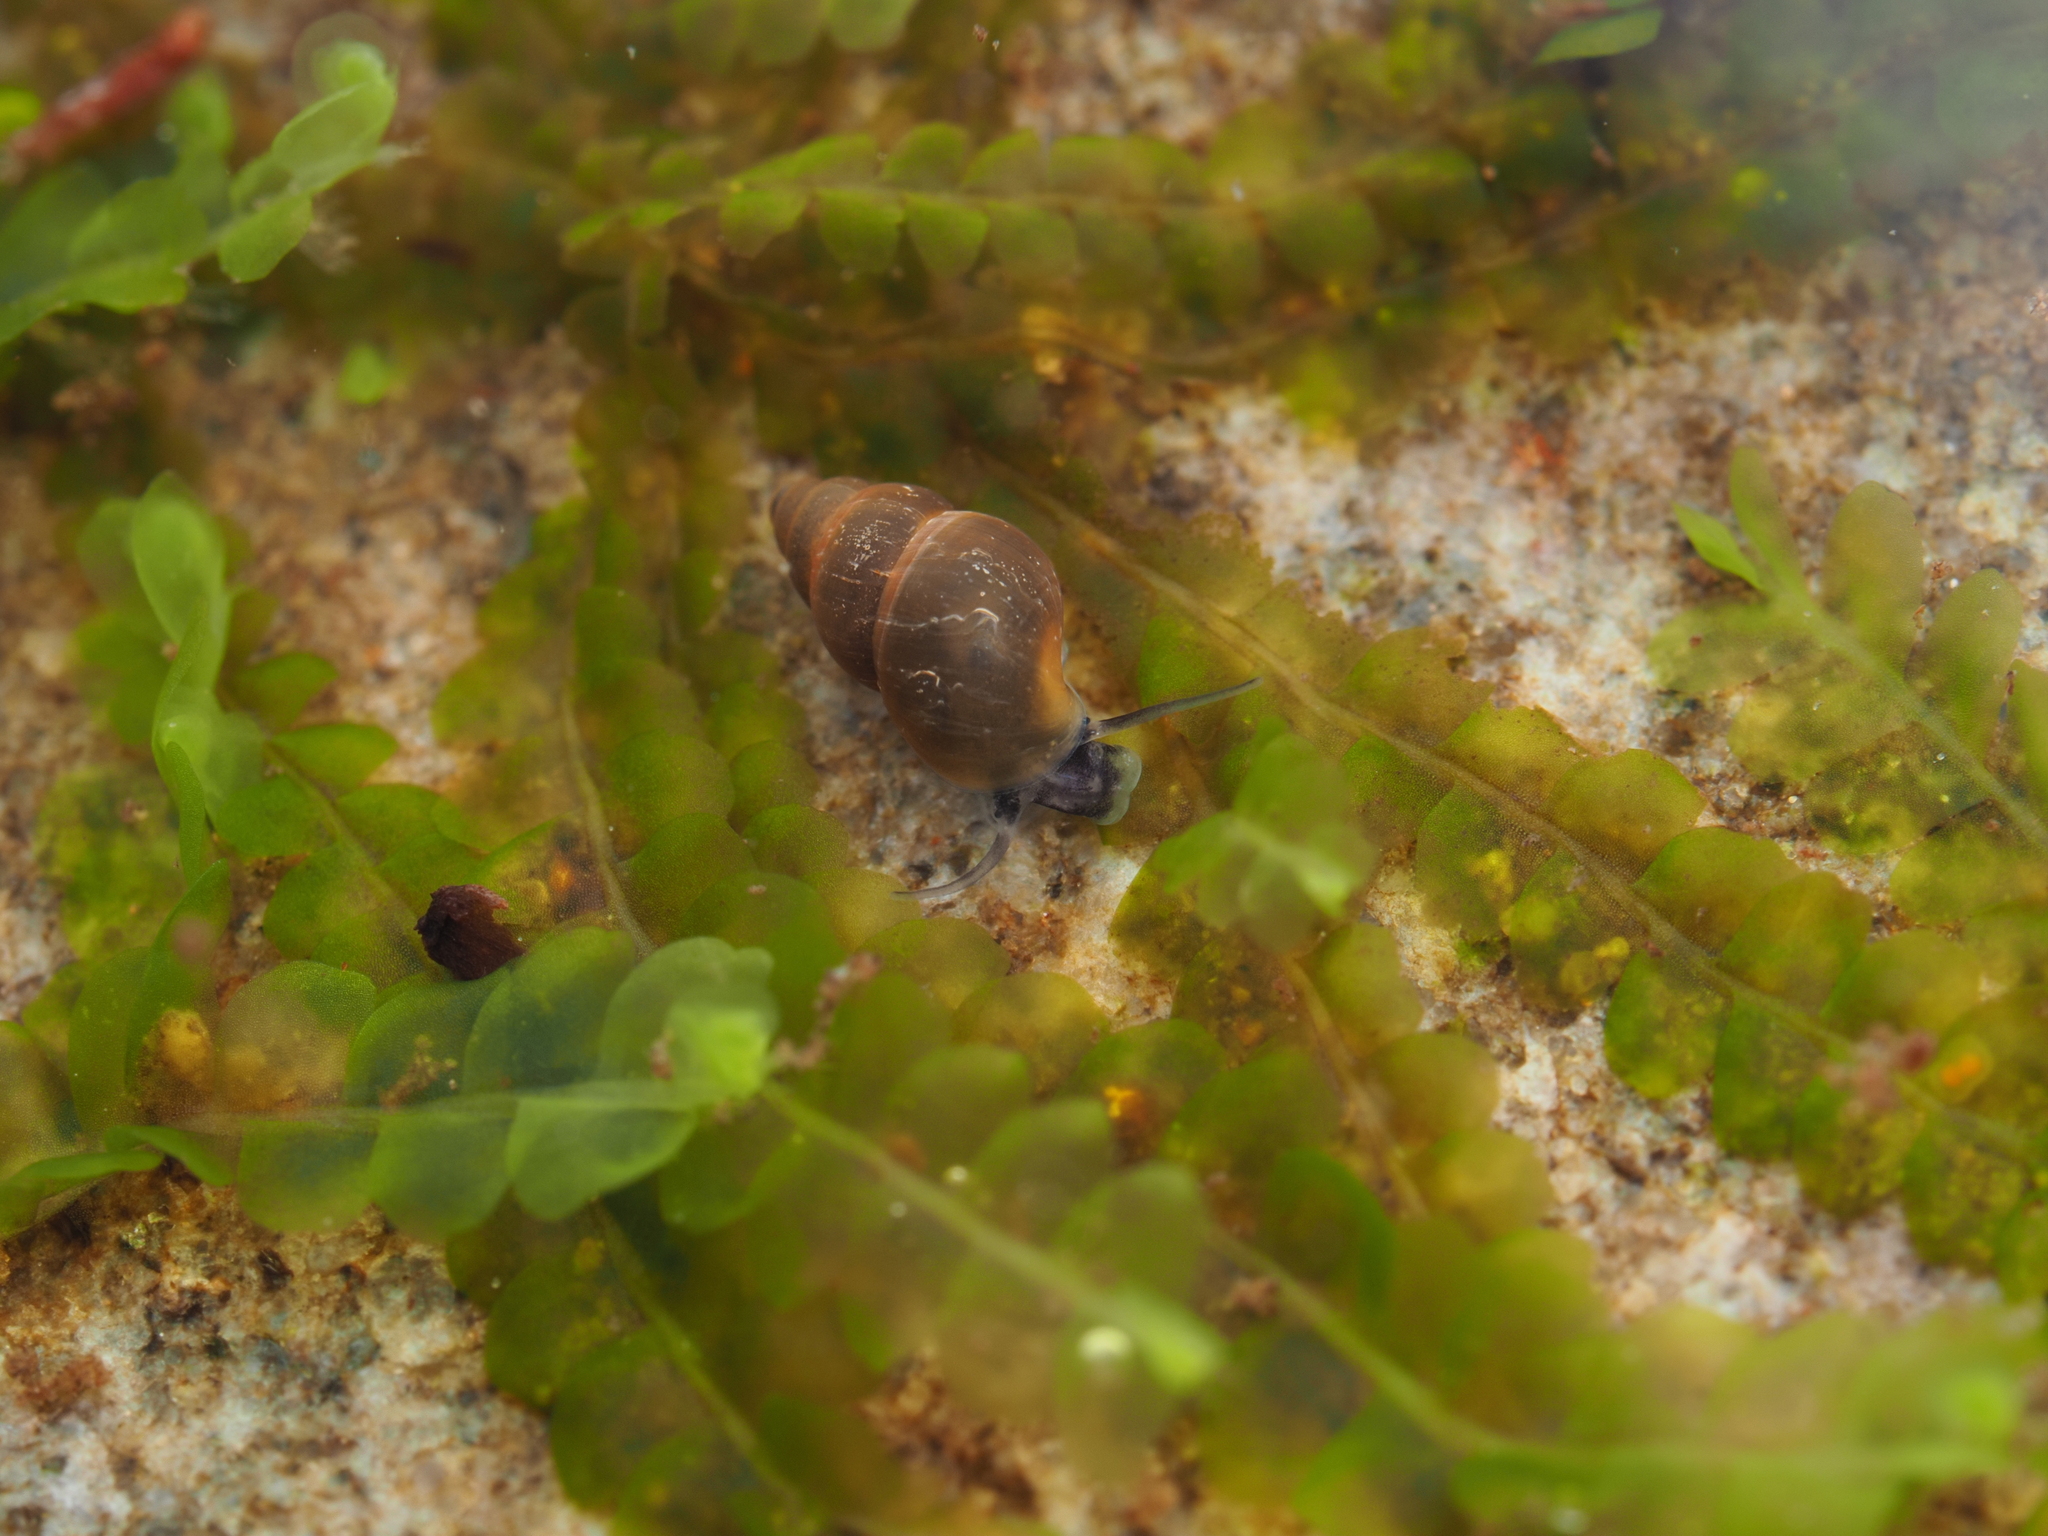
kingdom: Animalia
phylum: Mollusca
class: Gastropoda
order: Littorinimorpha
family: Tateidae
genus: Potamopyrgus
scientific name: Potamopyrgus antipodarum
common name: Jenkins' spire snail
